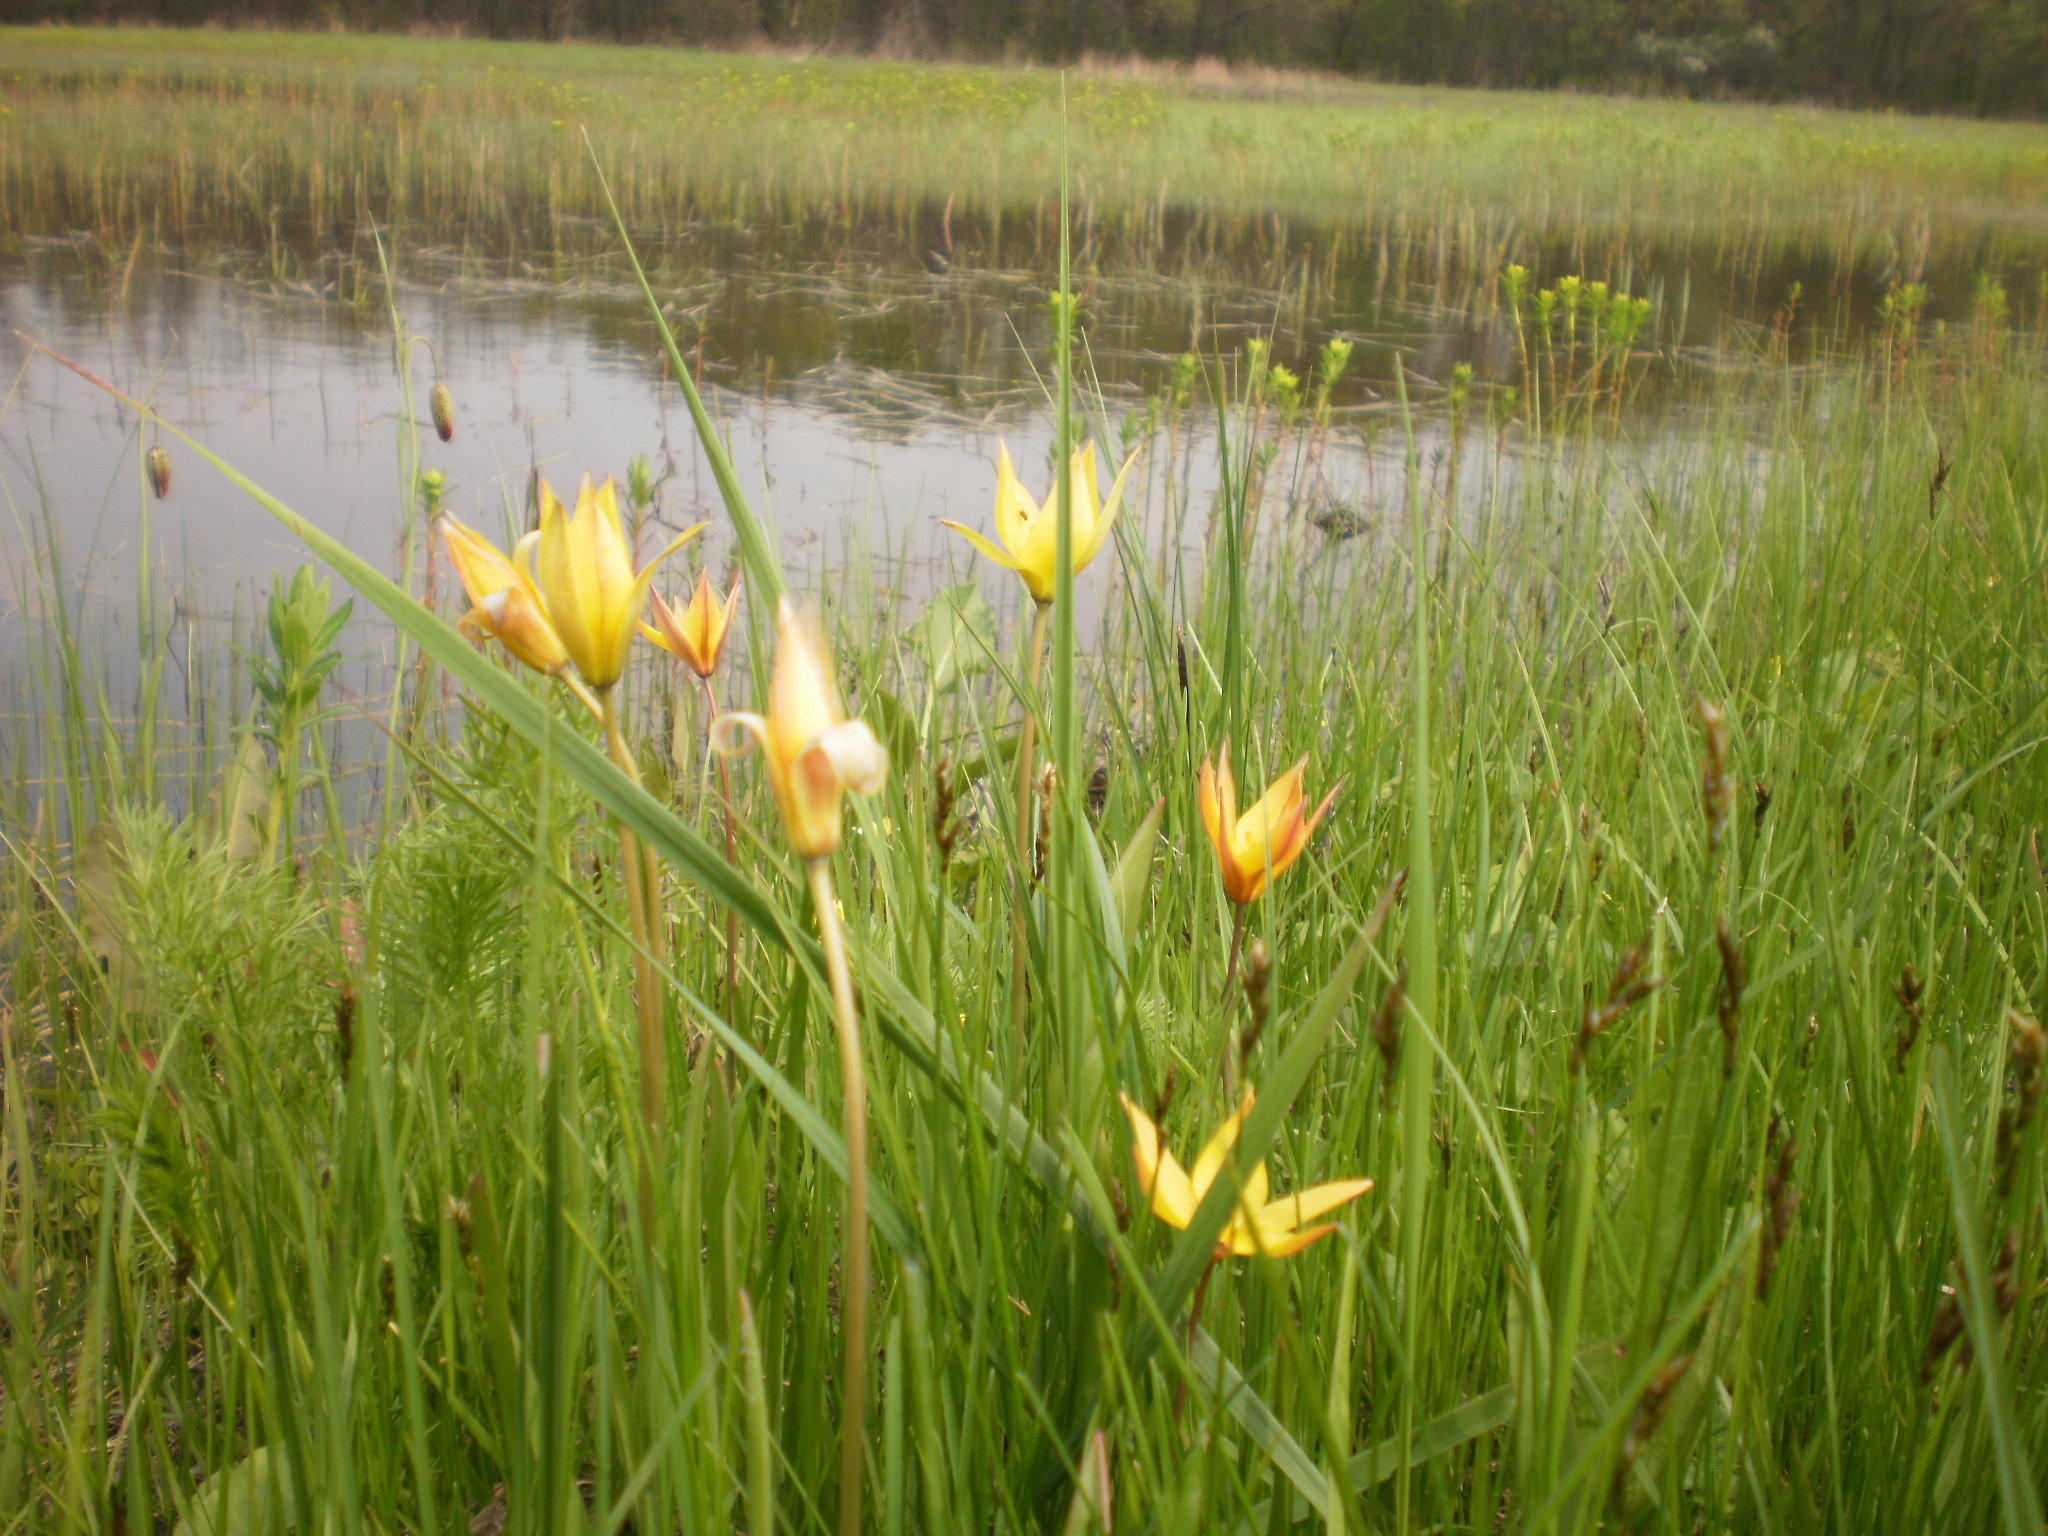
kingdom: Plantae
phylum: Tracheophyta
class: Liliopsida
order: Liliales
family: Liliaceae
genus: Tulipa
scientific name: Tulipa sylvestris
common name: Wild tulip
